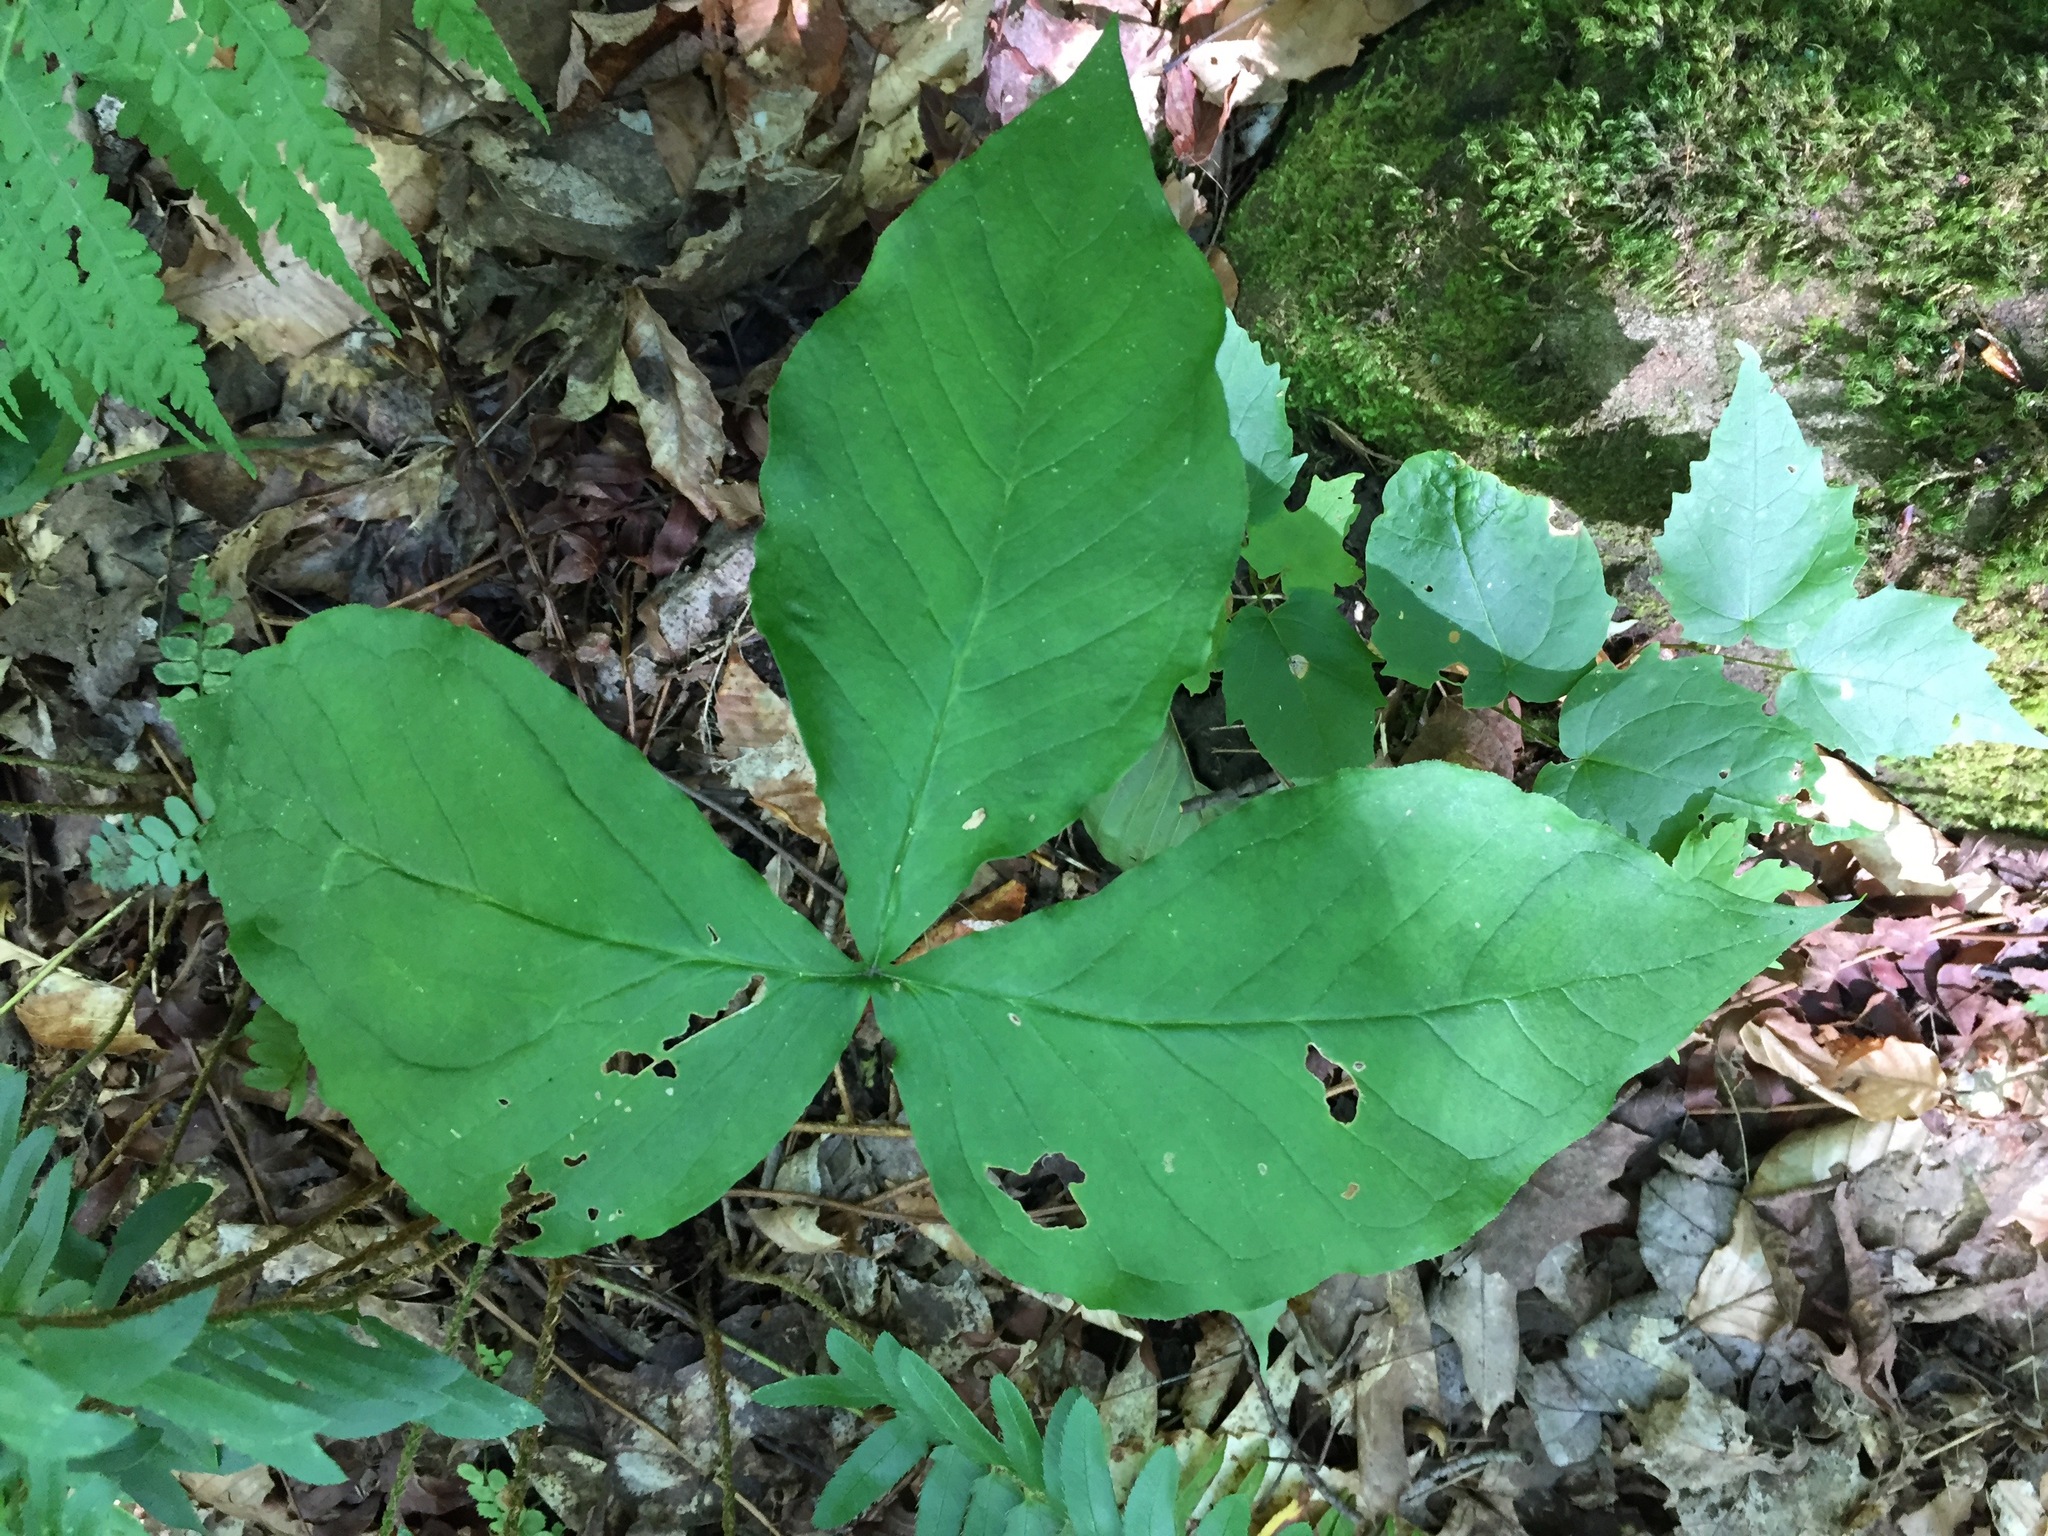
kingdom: Plantae
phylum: Tracheophyta
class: Liliopsida
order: Alismatales
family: Araceae
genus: Arisaema
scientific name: Arisaema triphyllum
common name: Jack-in-the-pulpit
